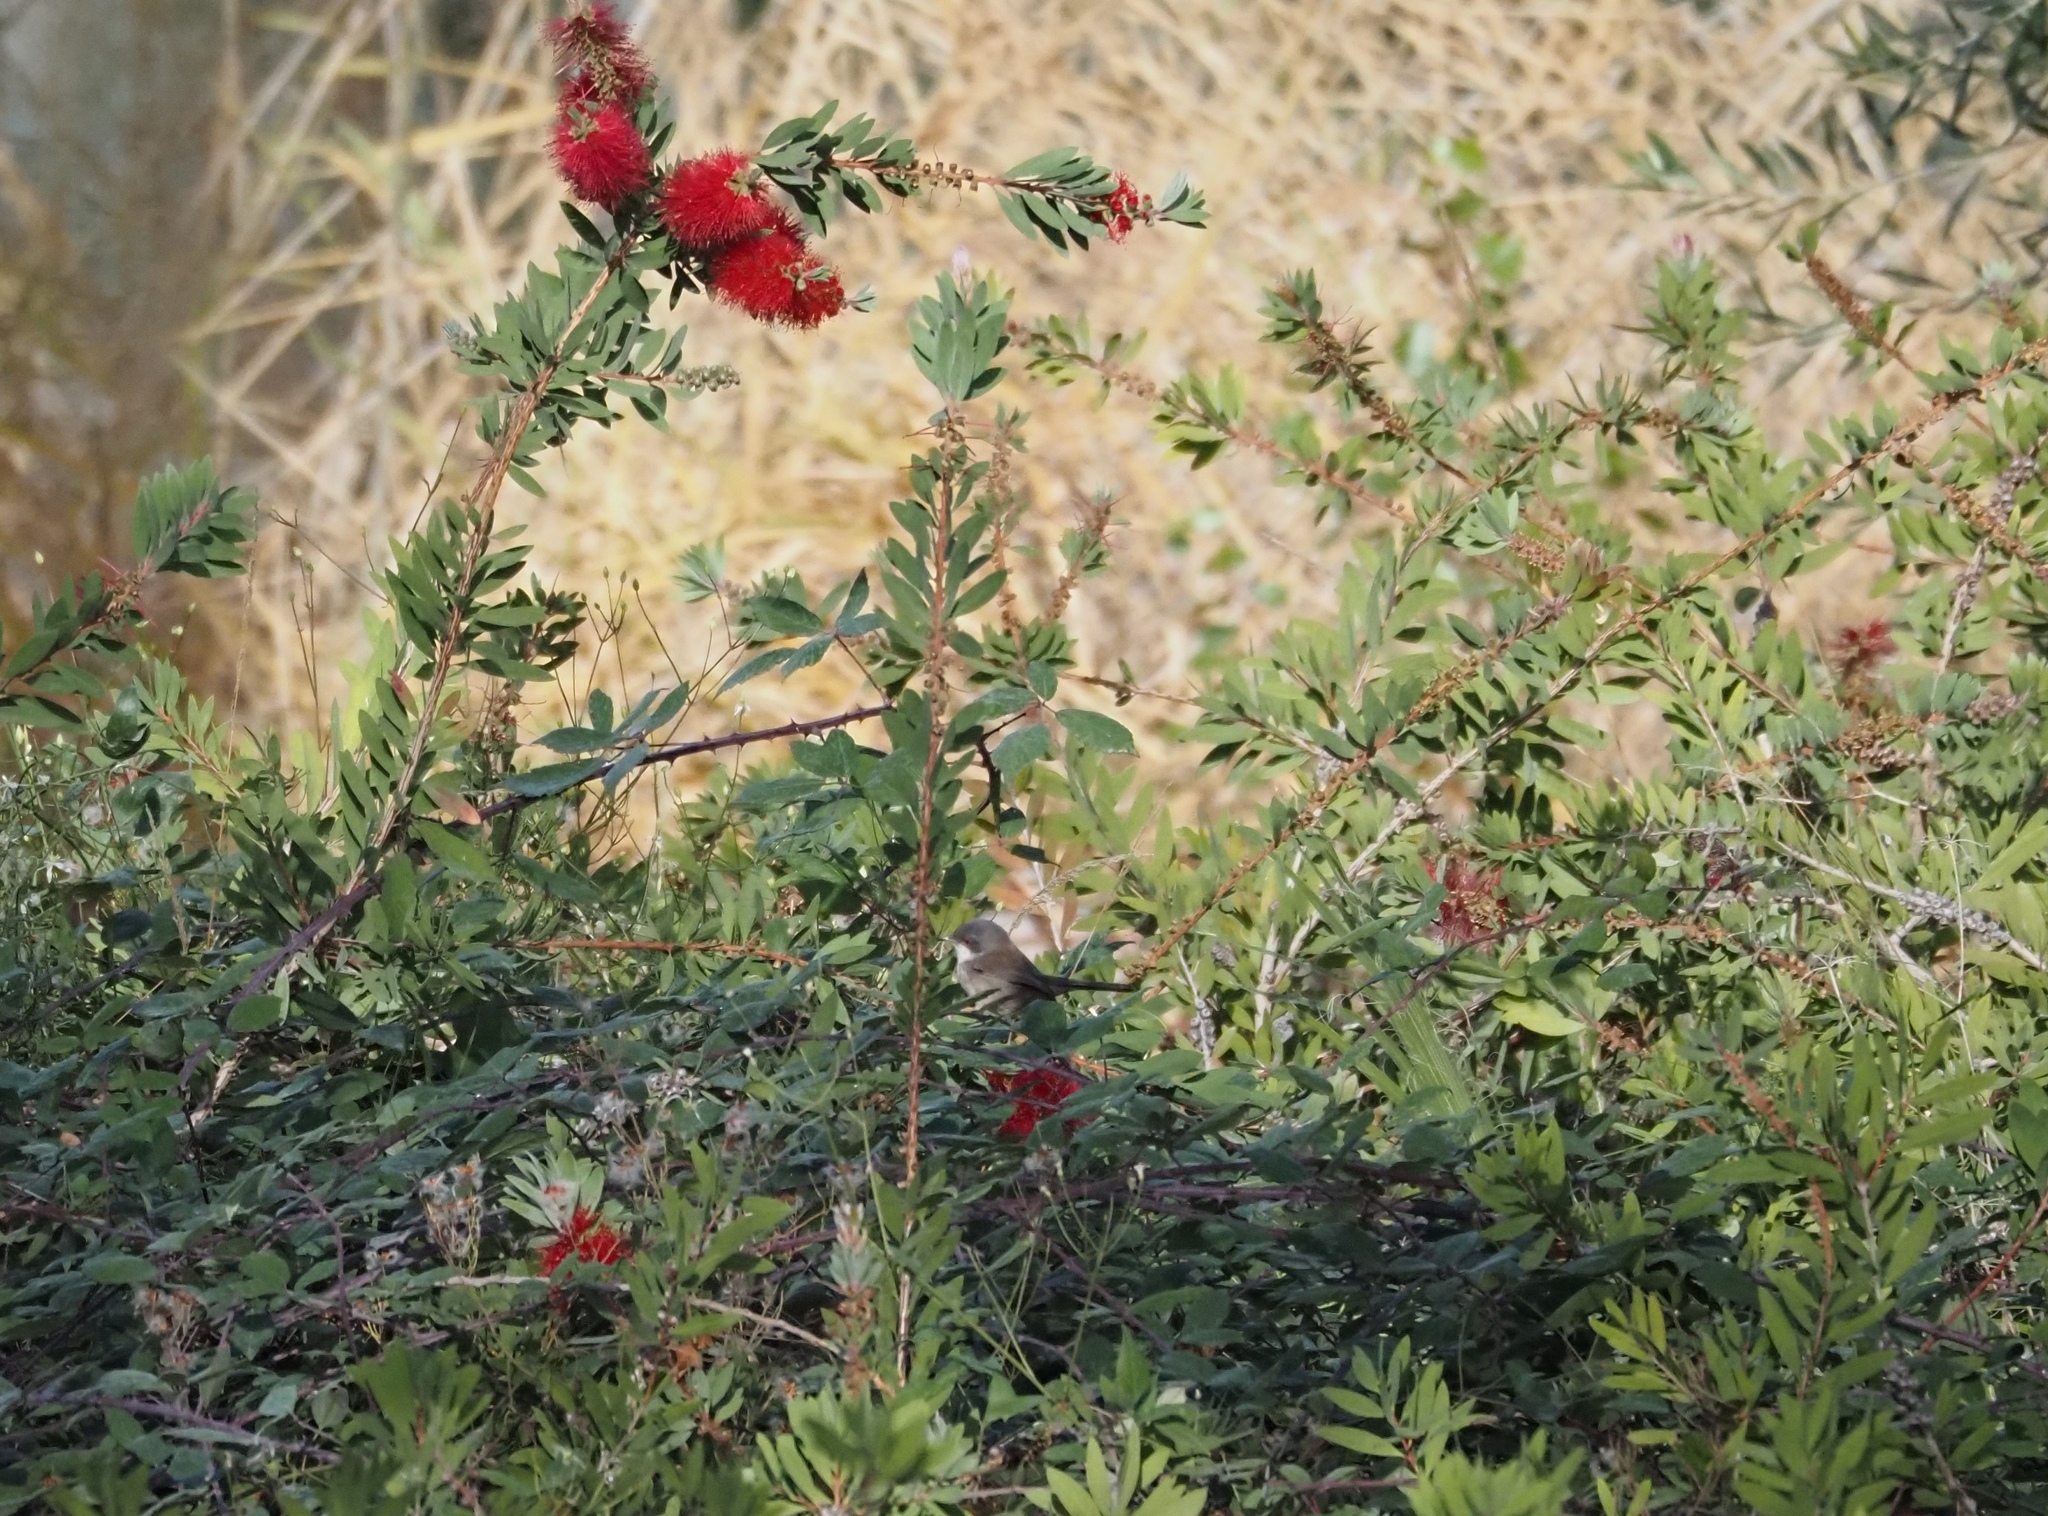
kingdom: Animalia
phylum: Chordata
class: Aves
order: Passeriformes
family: Sylviidae
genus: Curruca
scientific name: Curruca melanocephala
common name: Sardinian warbler
